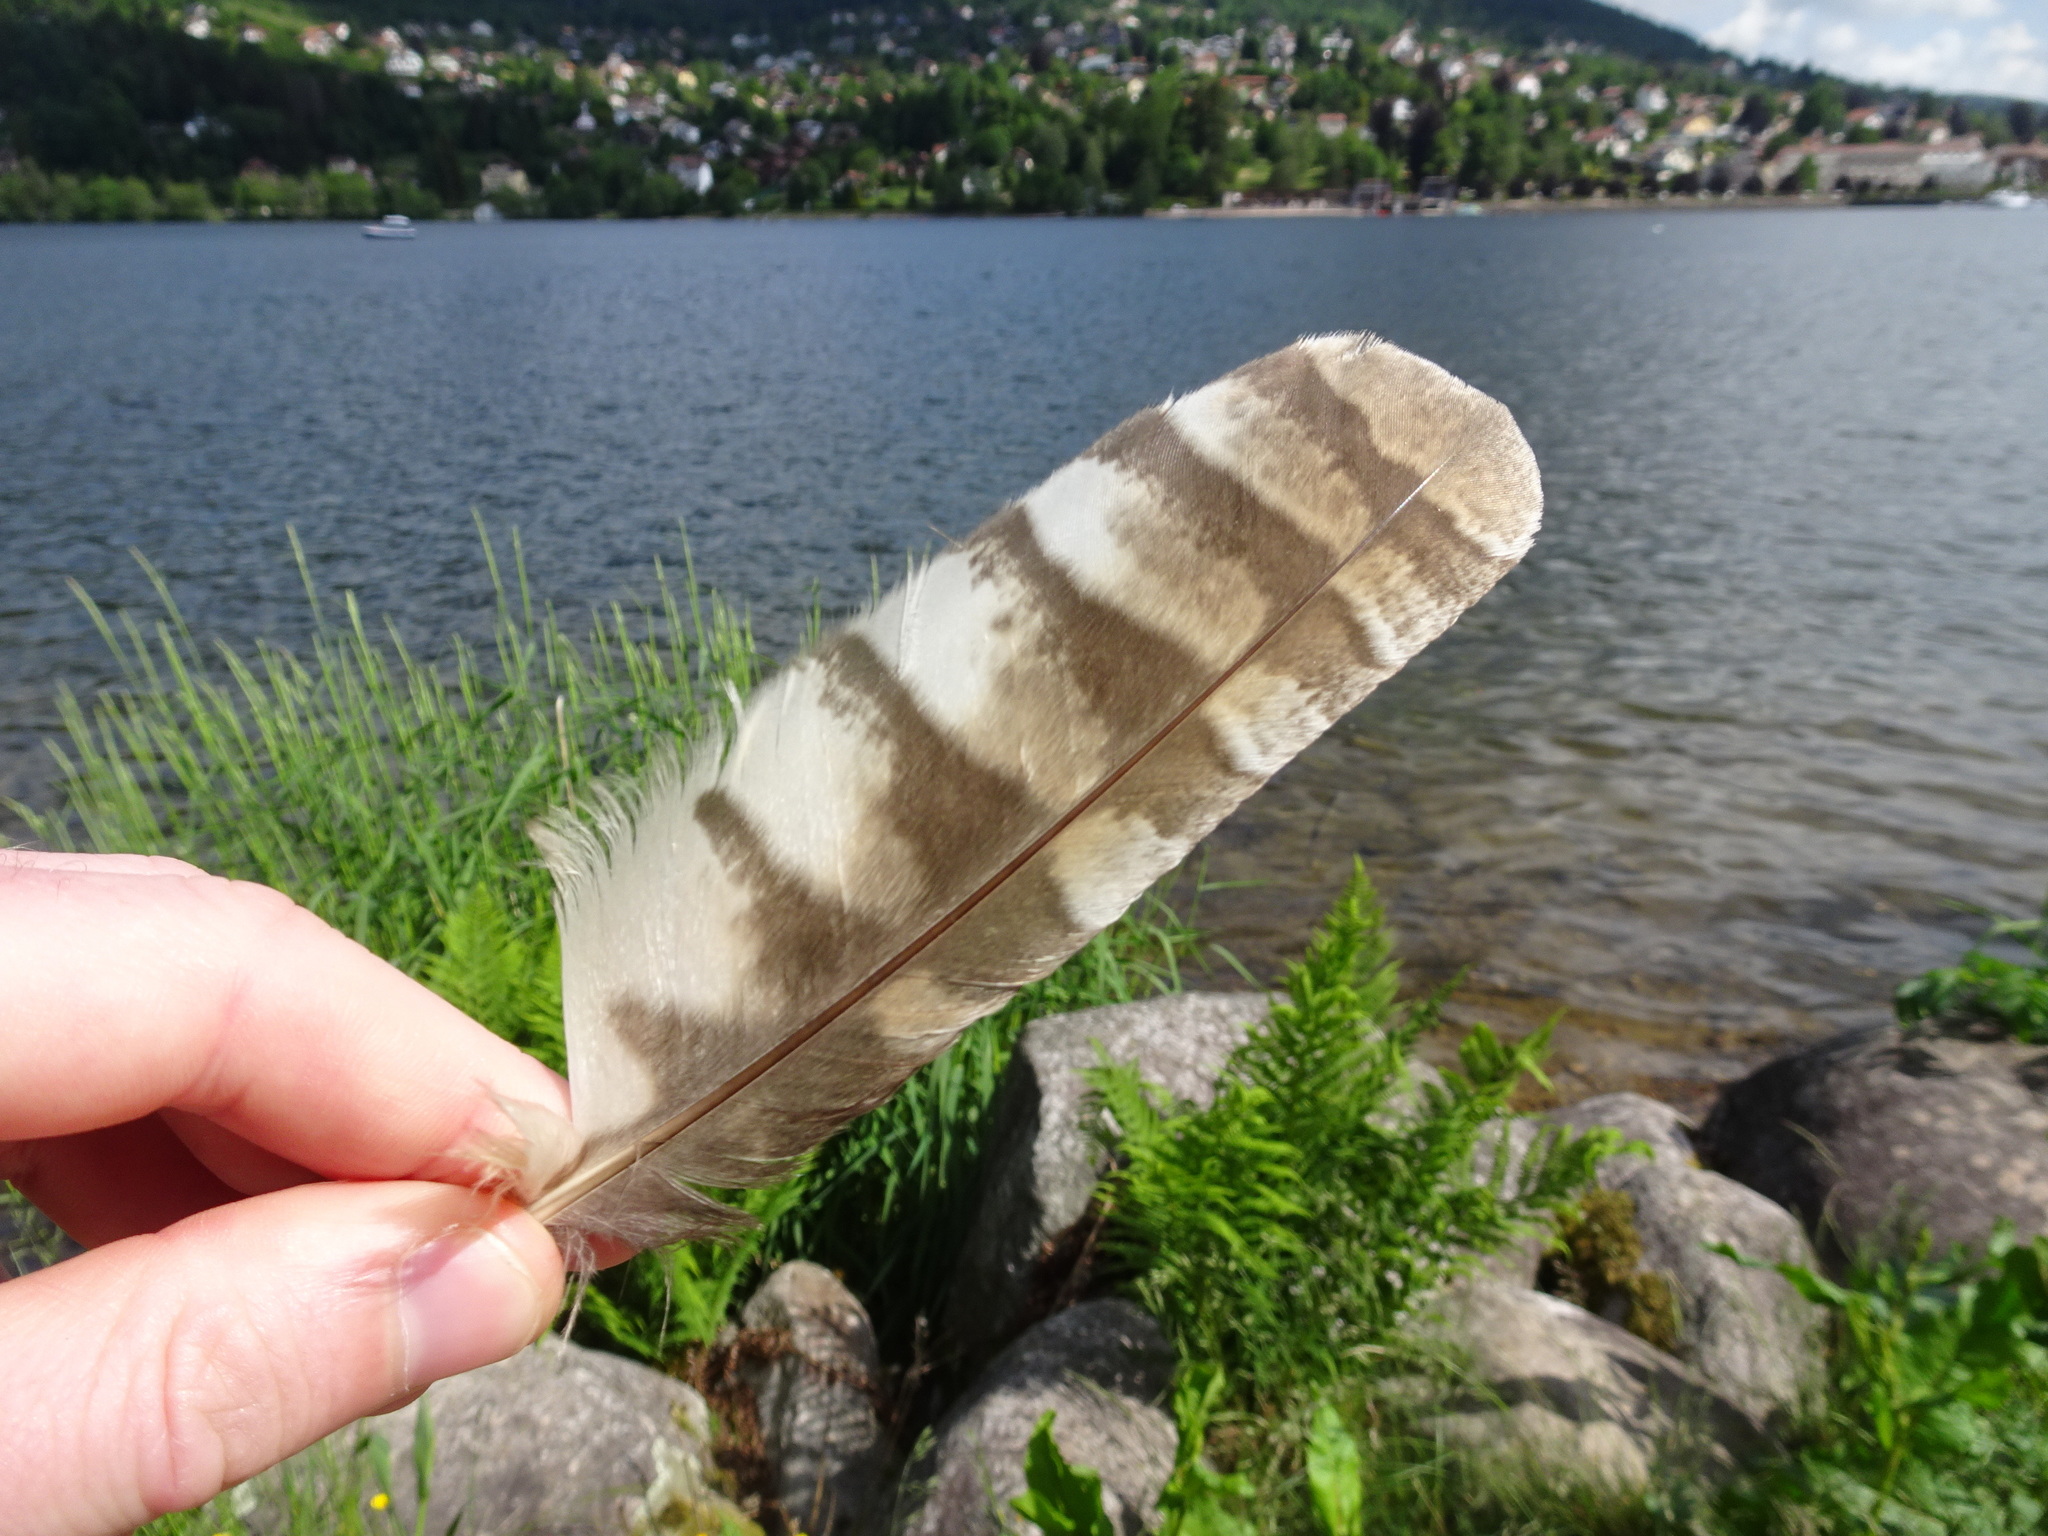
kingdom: Animalia
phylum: Chordata
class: Aves
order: Strigiformes
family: Strigidae
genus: Strix
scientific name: Strix aluco
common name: Tawny owl
